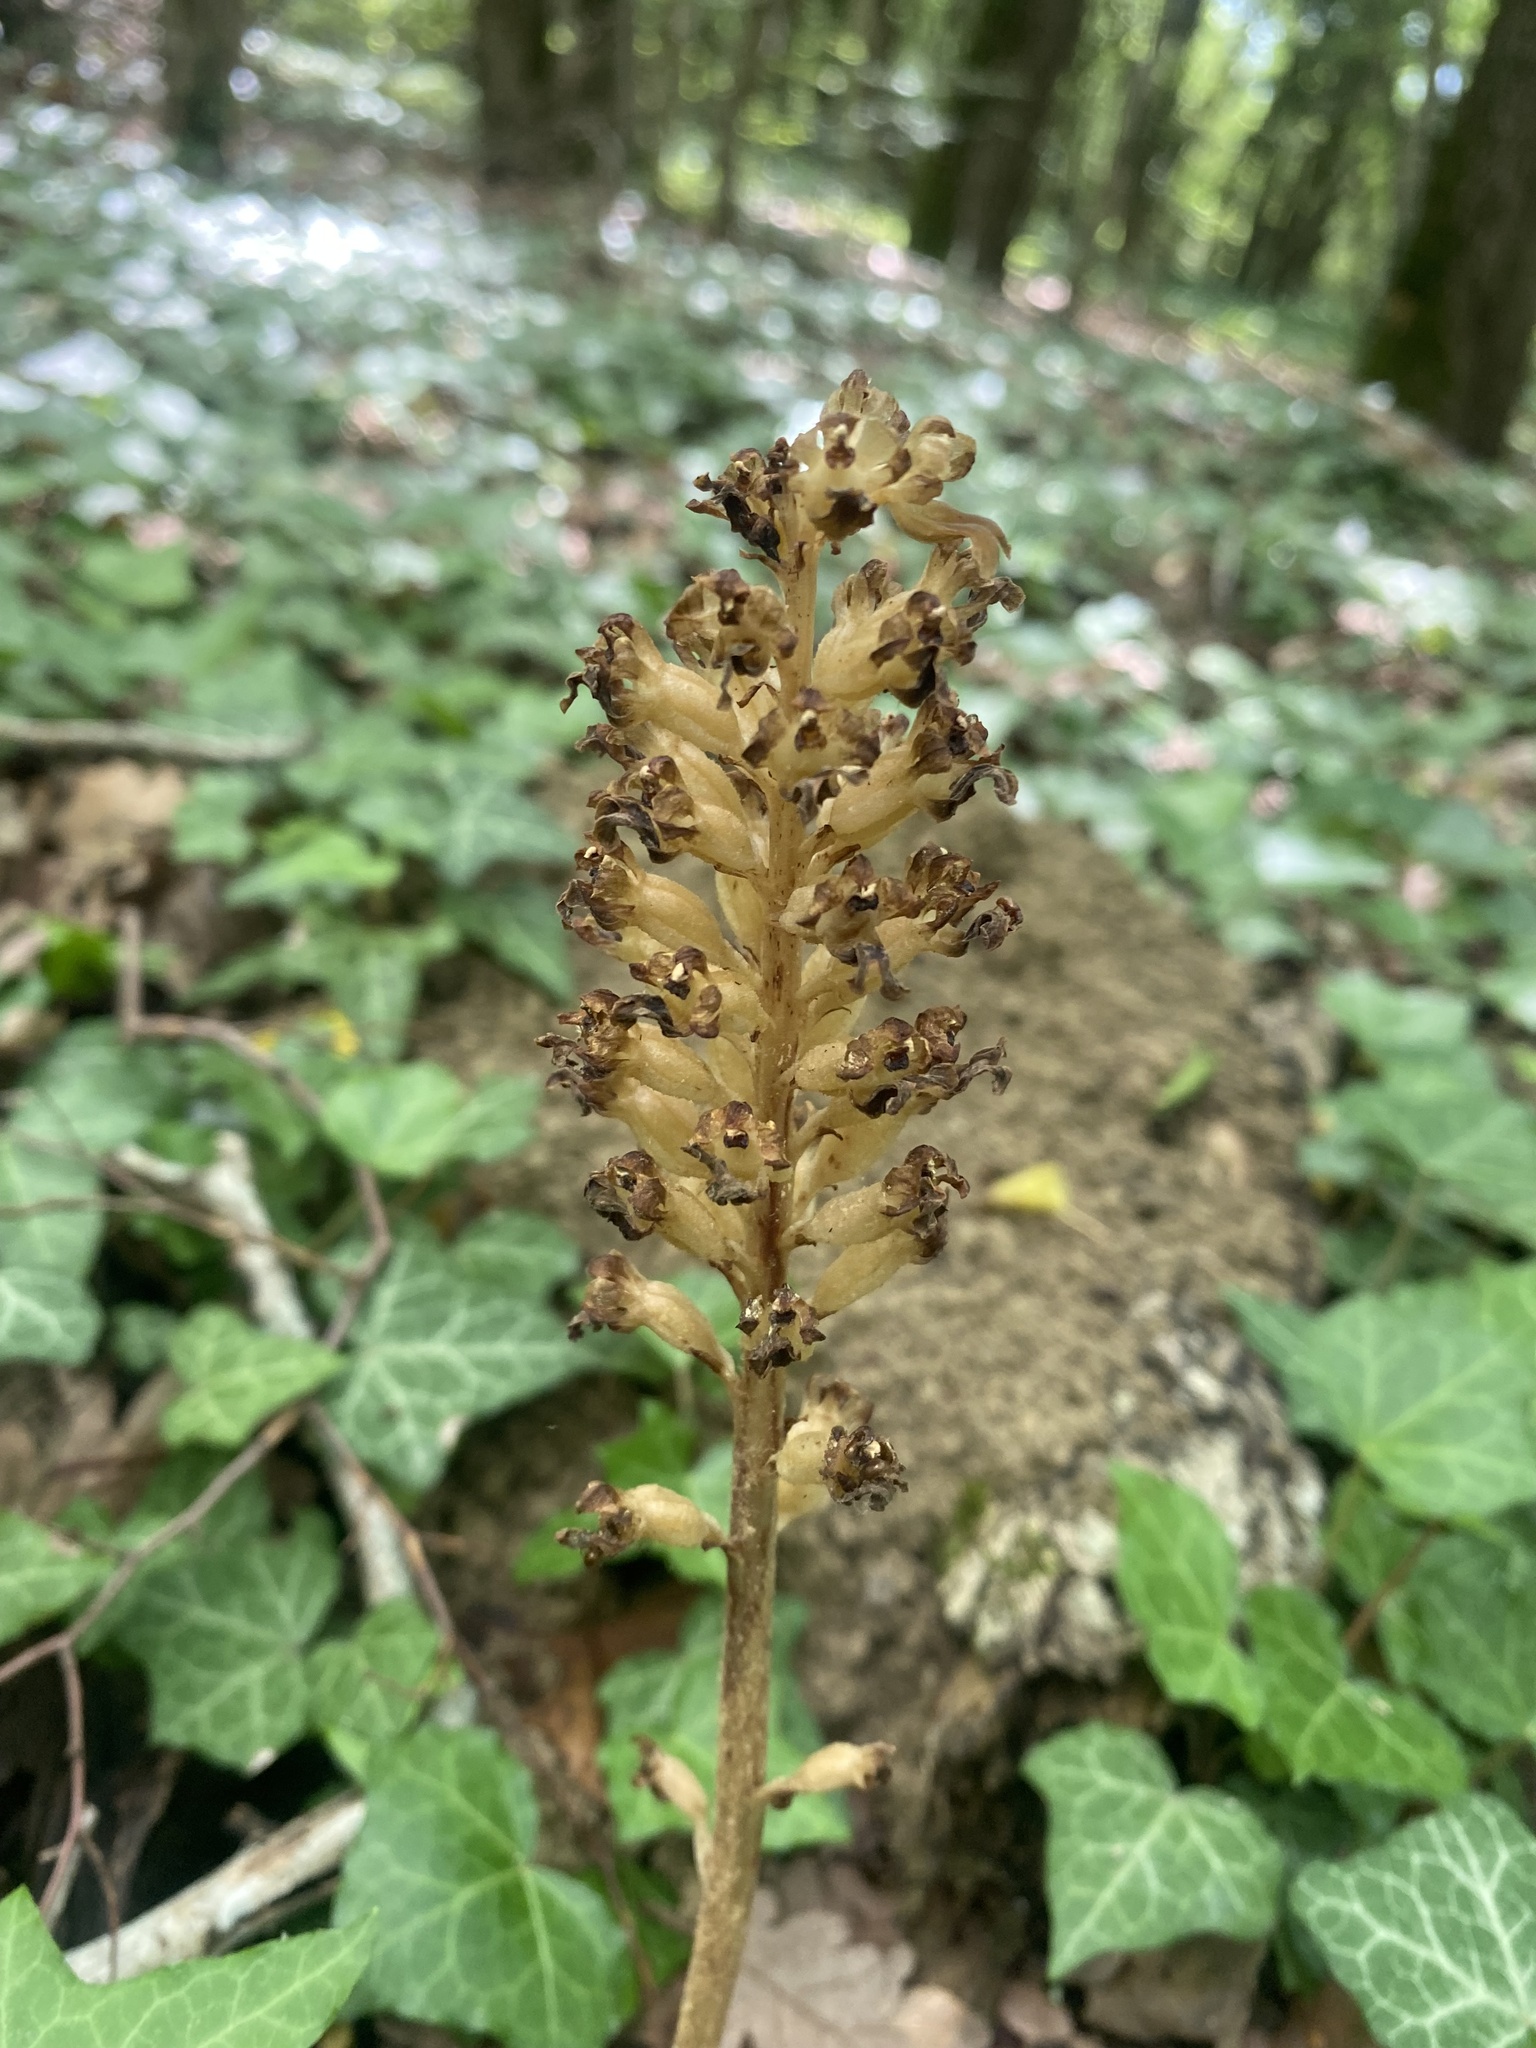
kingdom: Plantae
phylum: Tracheophyta
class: Liliopsida
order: Asparagales
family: Orchidaceae
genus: Neottia
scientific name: Neottia nidus-avis
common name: Bird's-nest orchid
